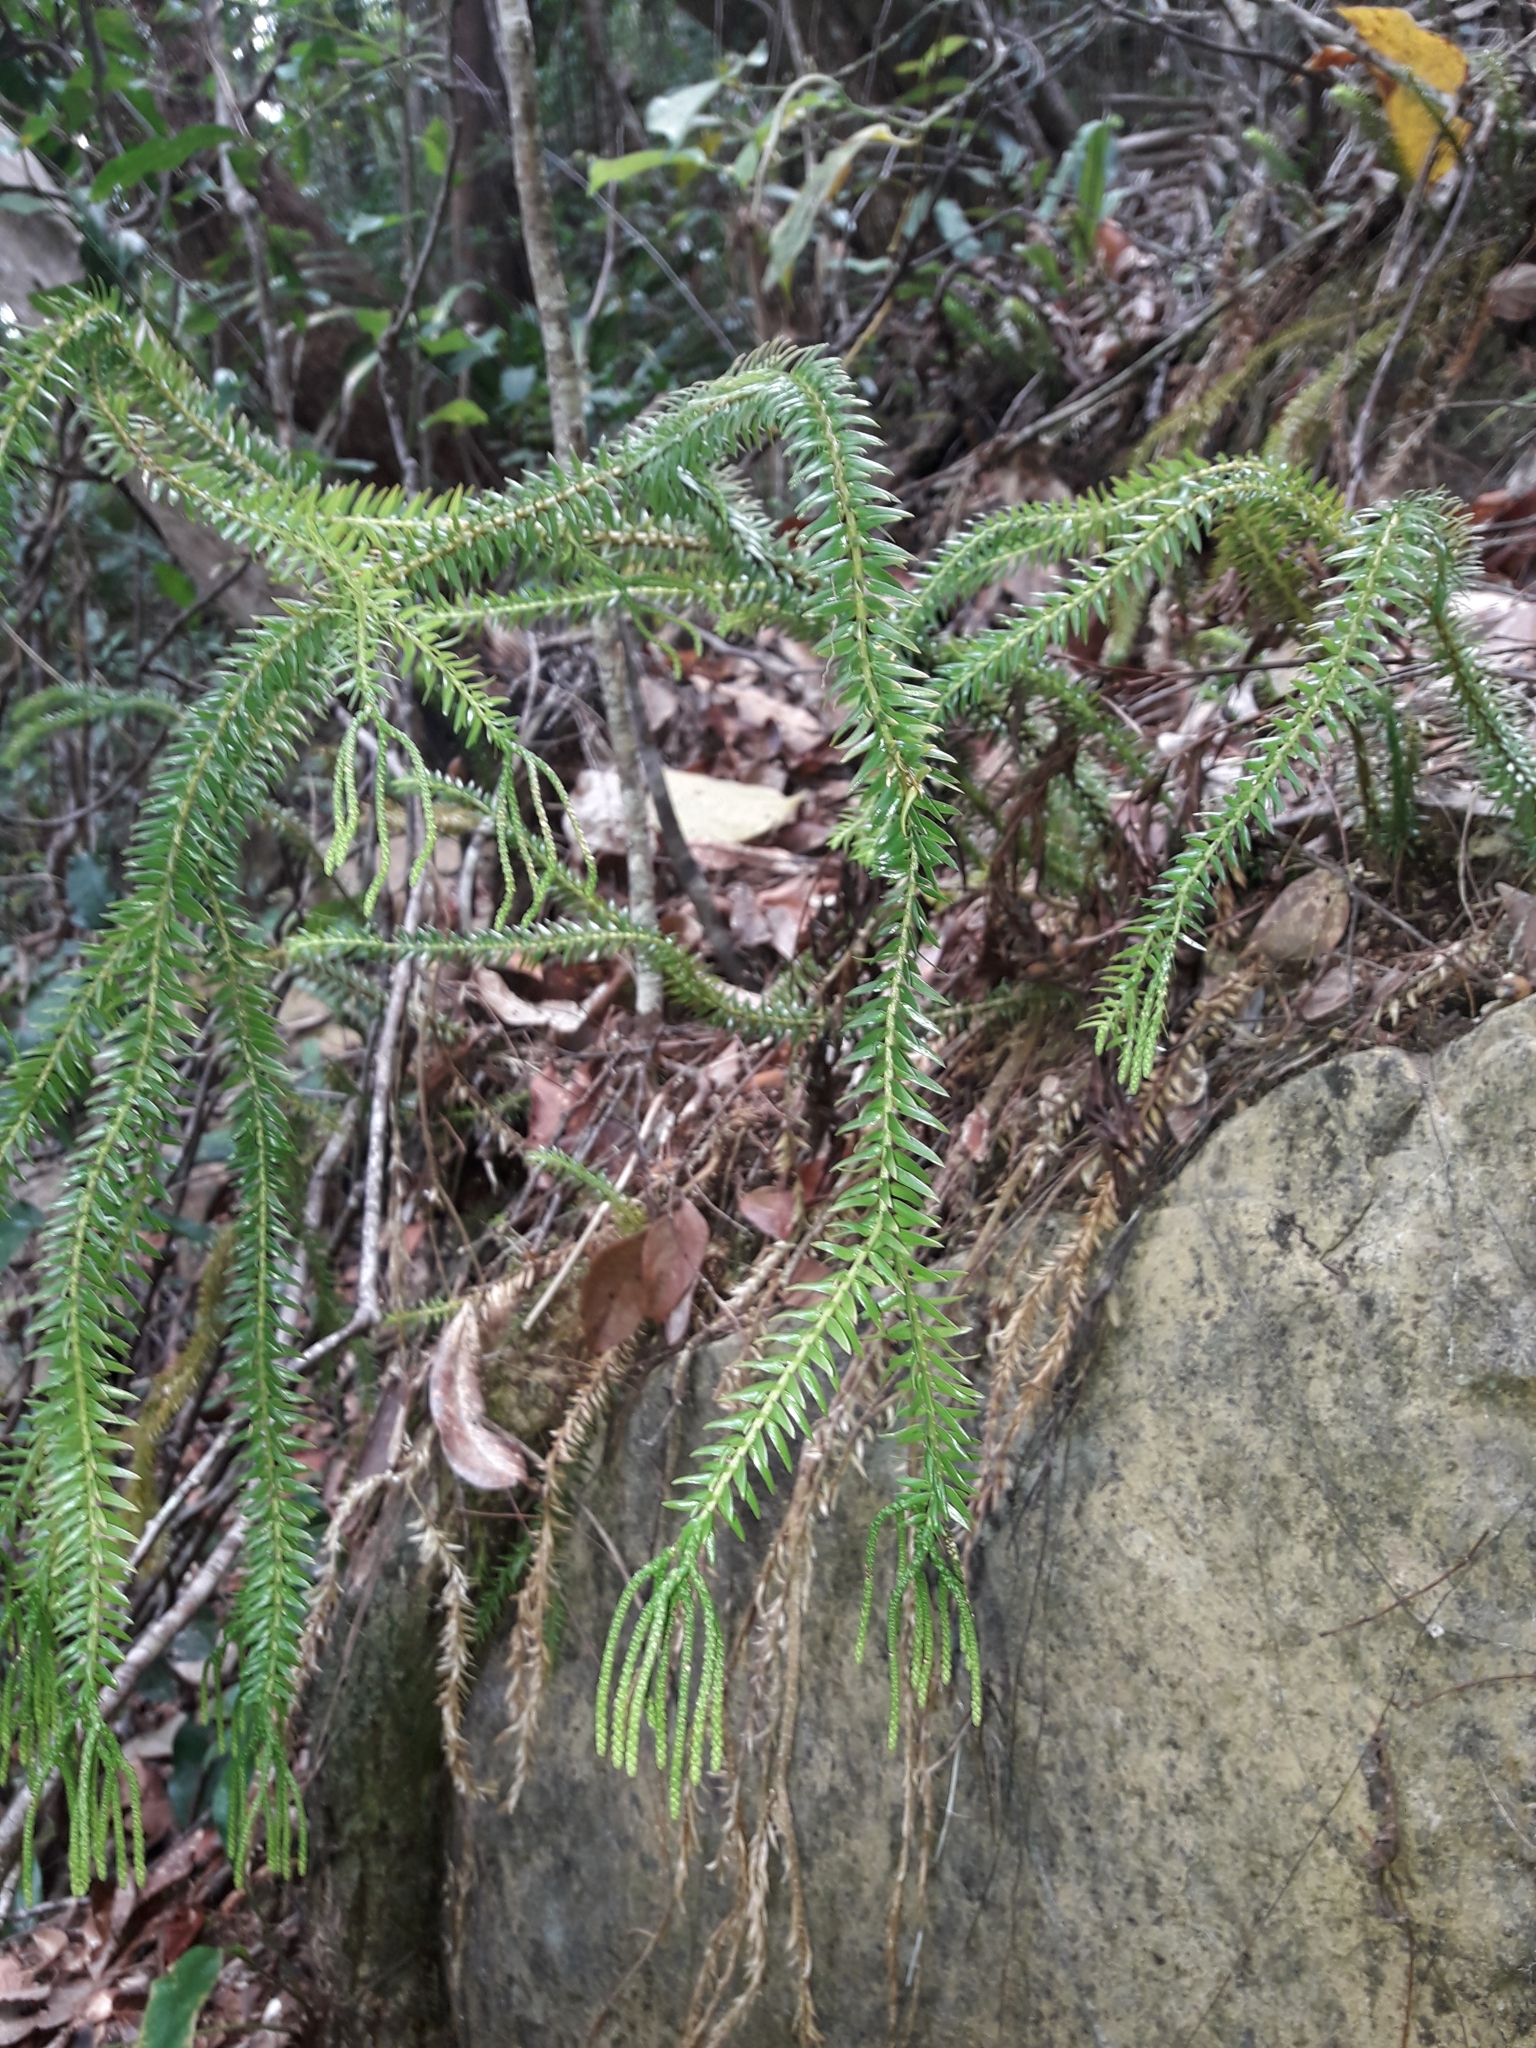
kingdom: Plantae
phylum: Tracheophyta
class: Lycopodiopsida
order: Lycopodiales
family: Lycopodiaceae
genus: Phlegmariurus
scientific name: Phlegmariurus phlegmaria
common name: Coarse tassel-fern
